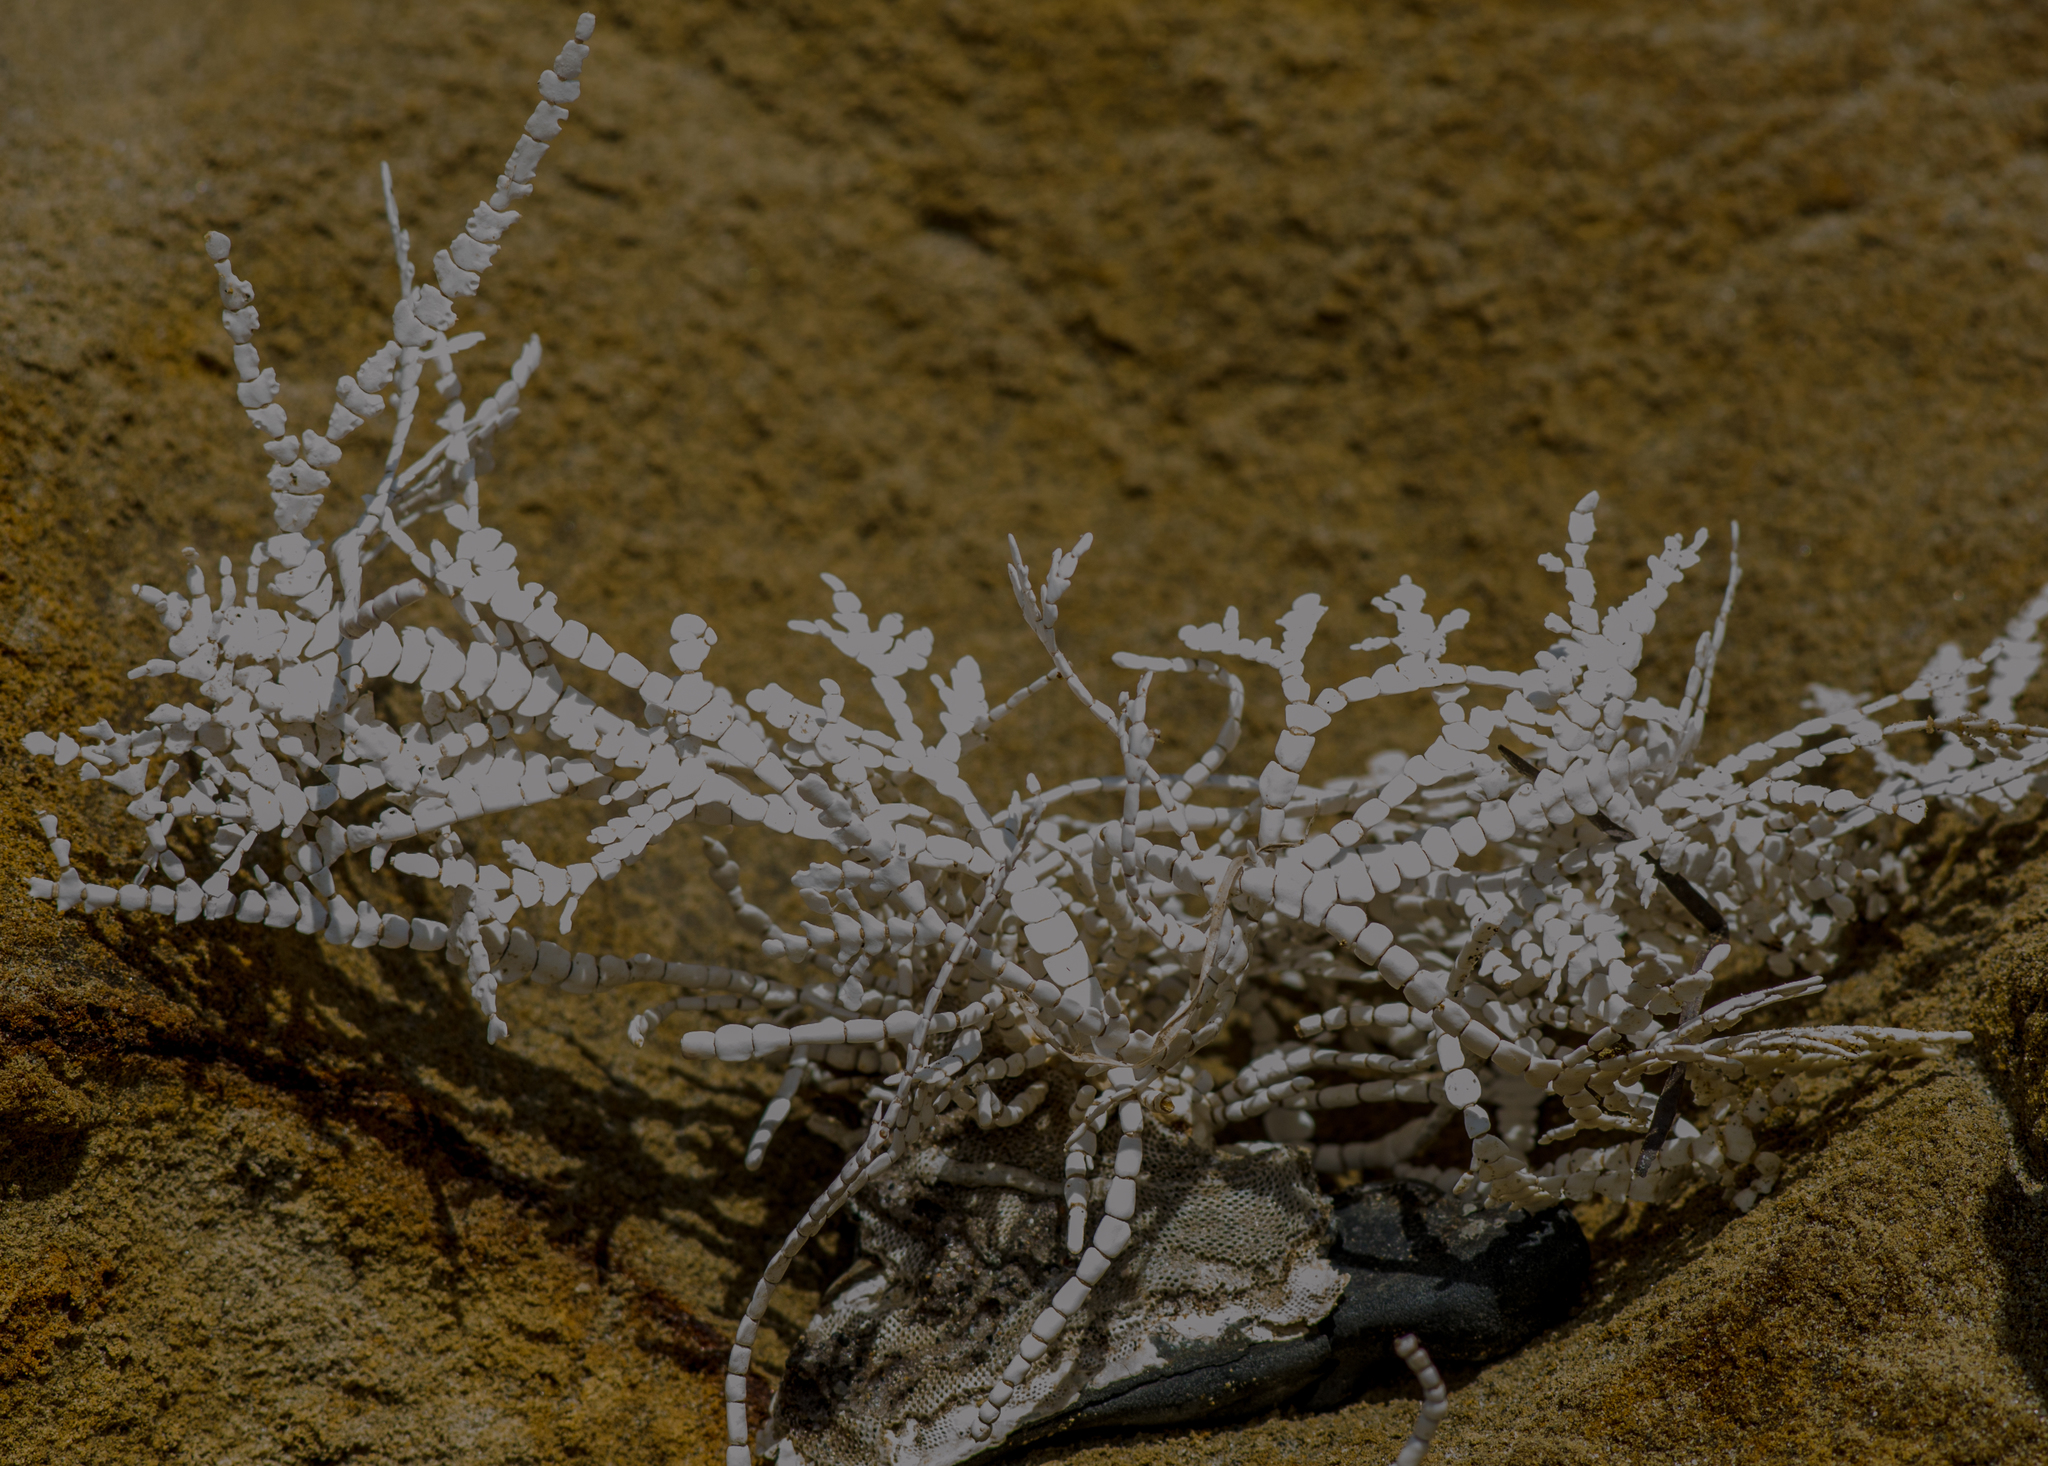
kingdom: Plantae
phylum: Rhodophyta
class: Florideophyceae
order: Corallinales
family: Corallinaceae
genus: Calliarthron
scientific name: Calliarthron tuberculosum
